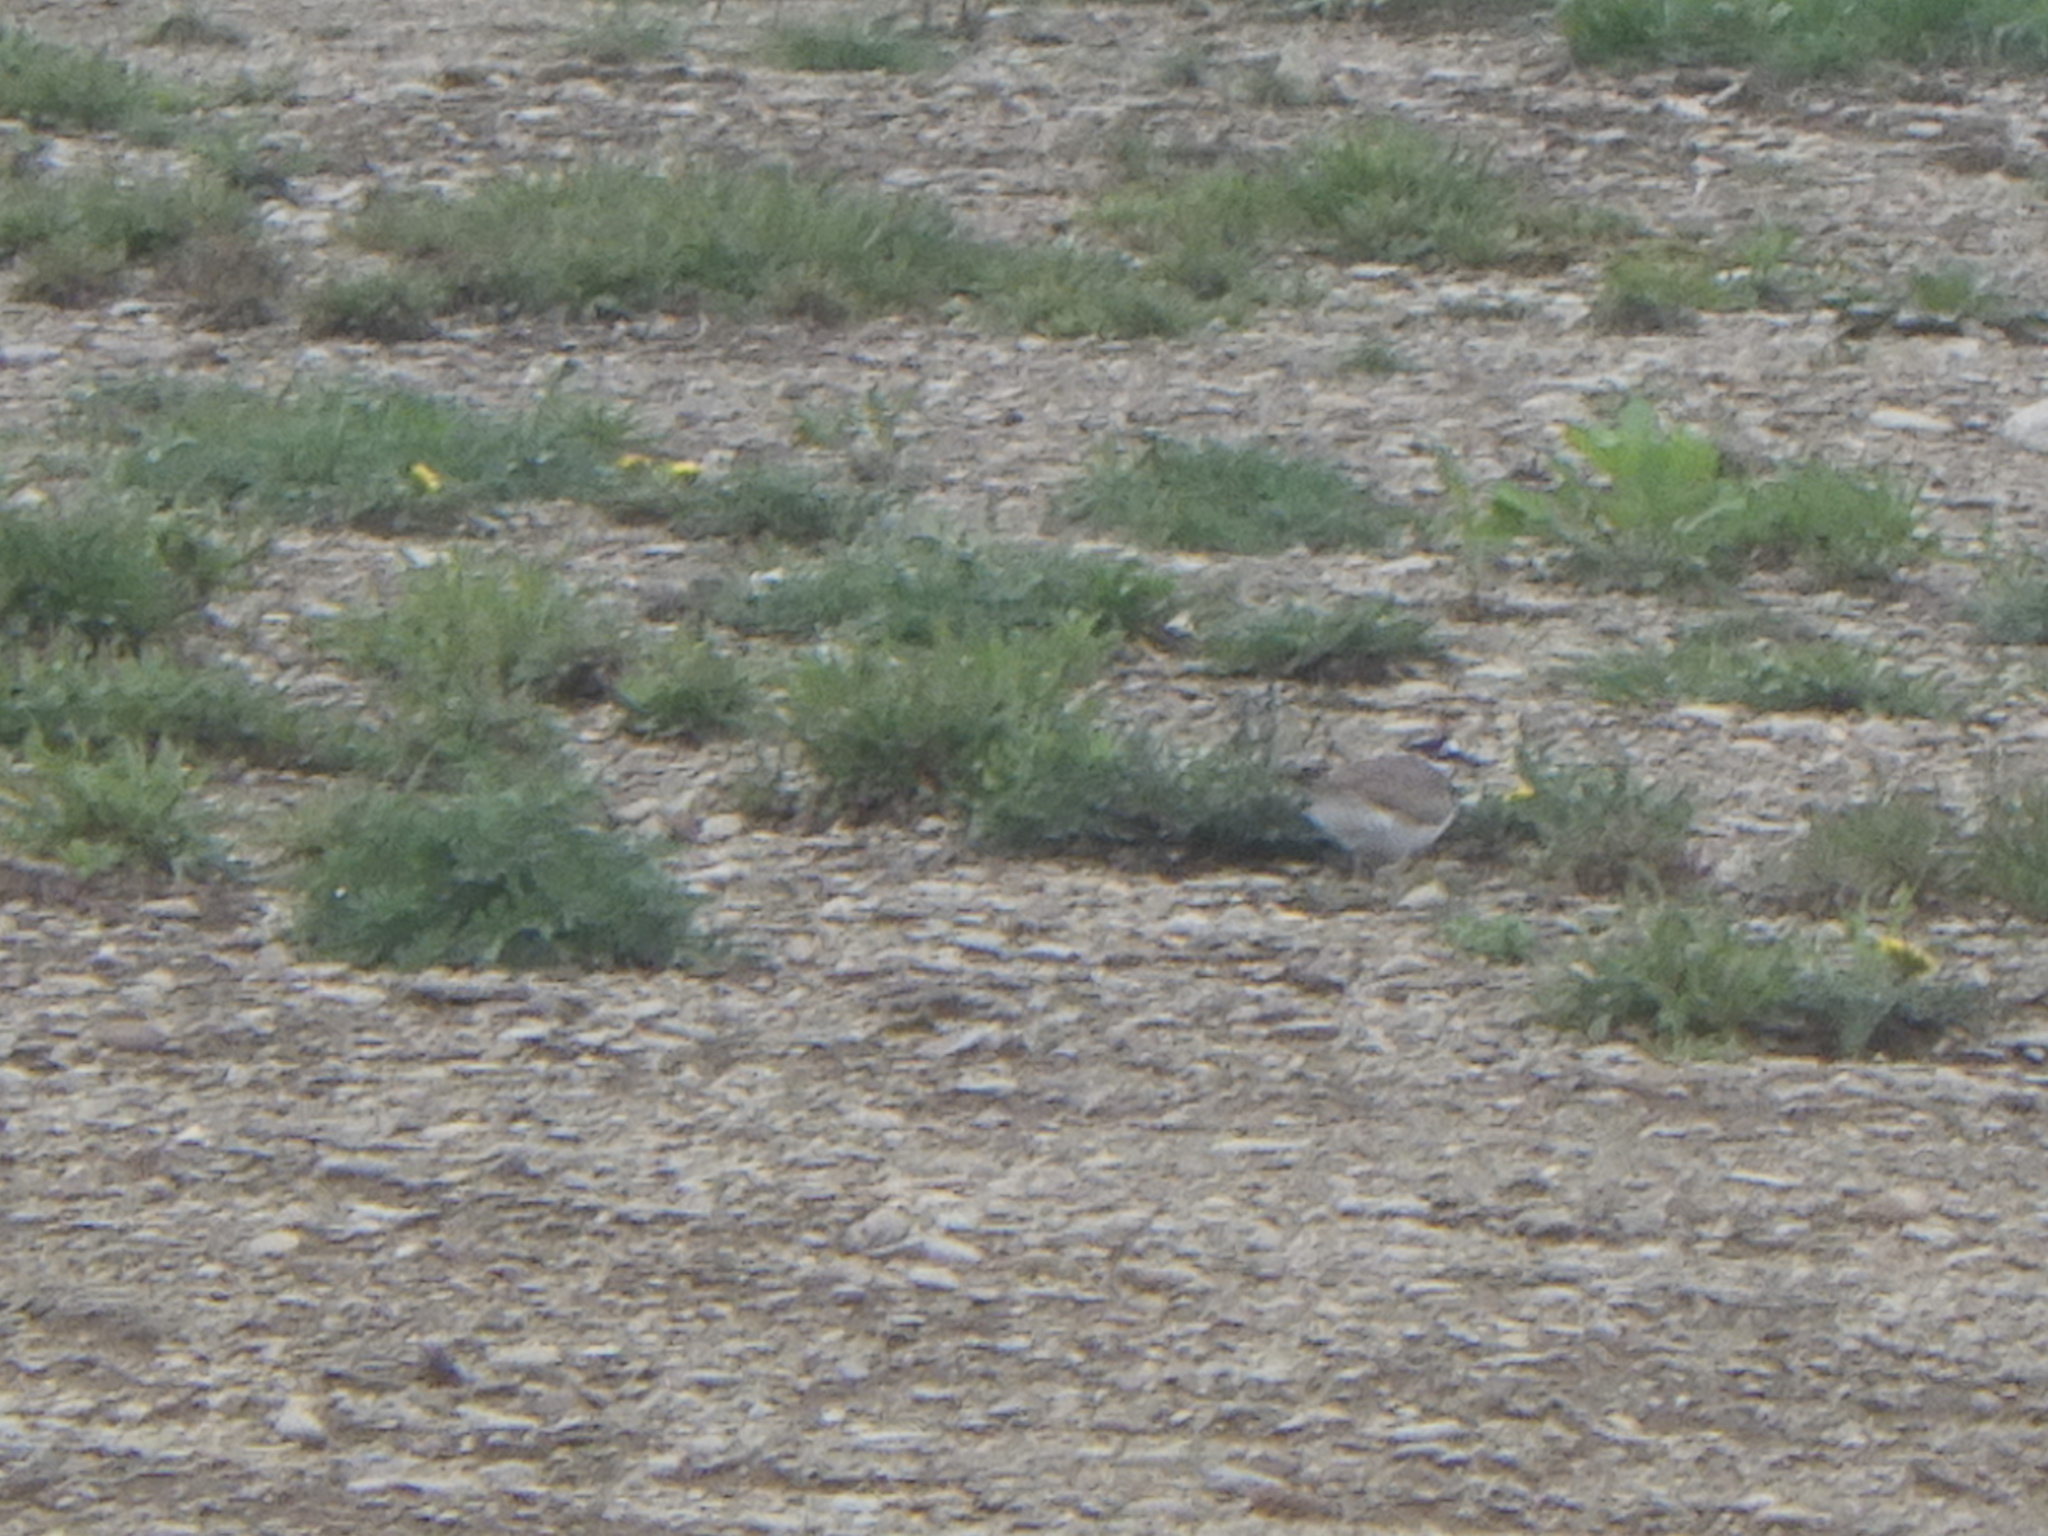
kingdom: Animalia
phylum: Chordata
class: Aves
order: Charadriiformes
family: Charadriidae
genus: Charadrius
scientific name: Charadrius vociferus
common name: Killdeer
